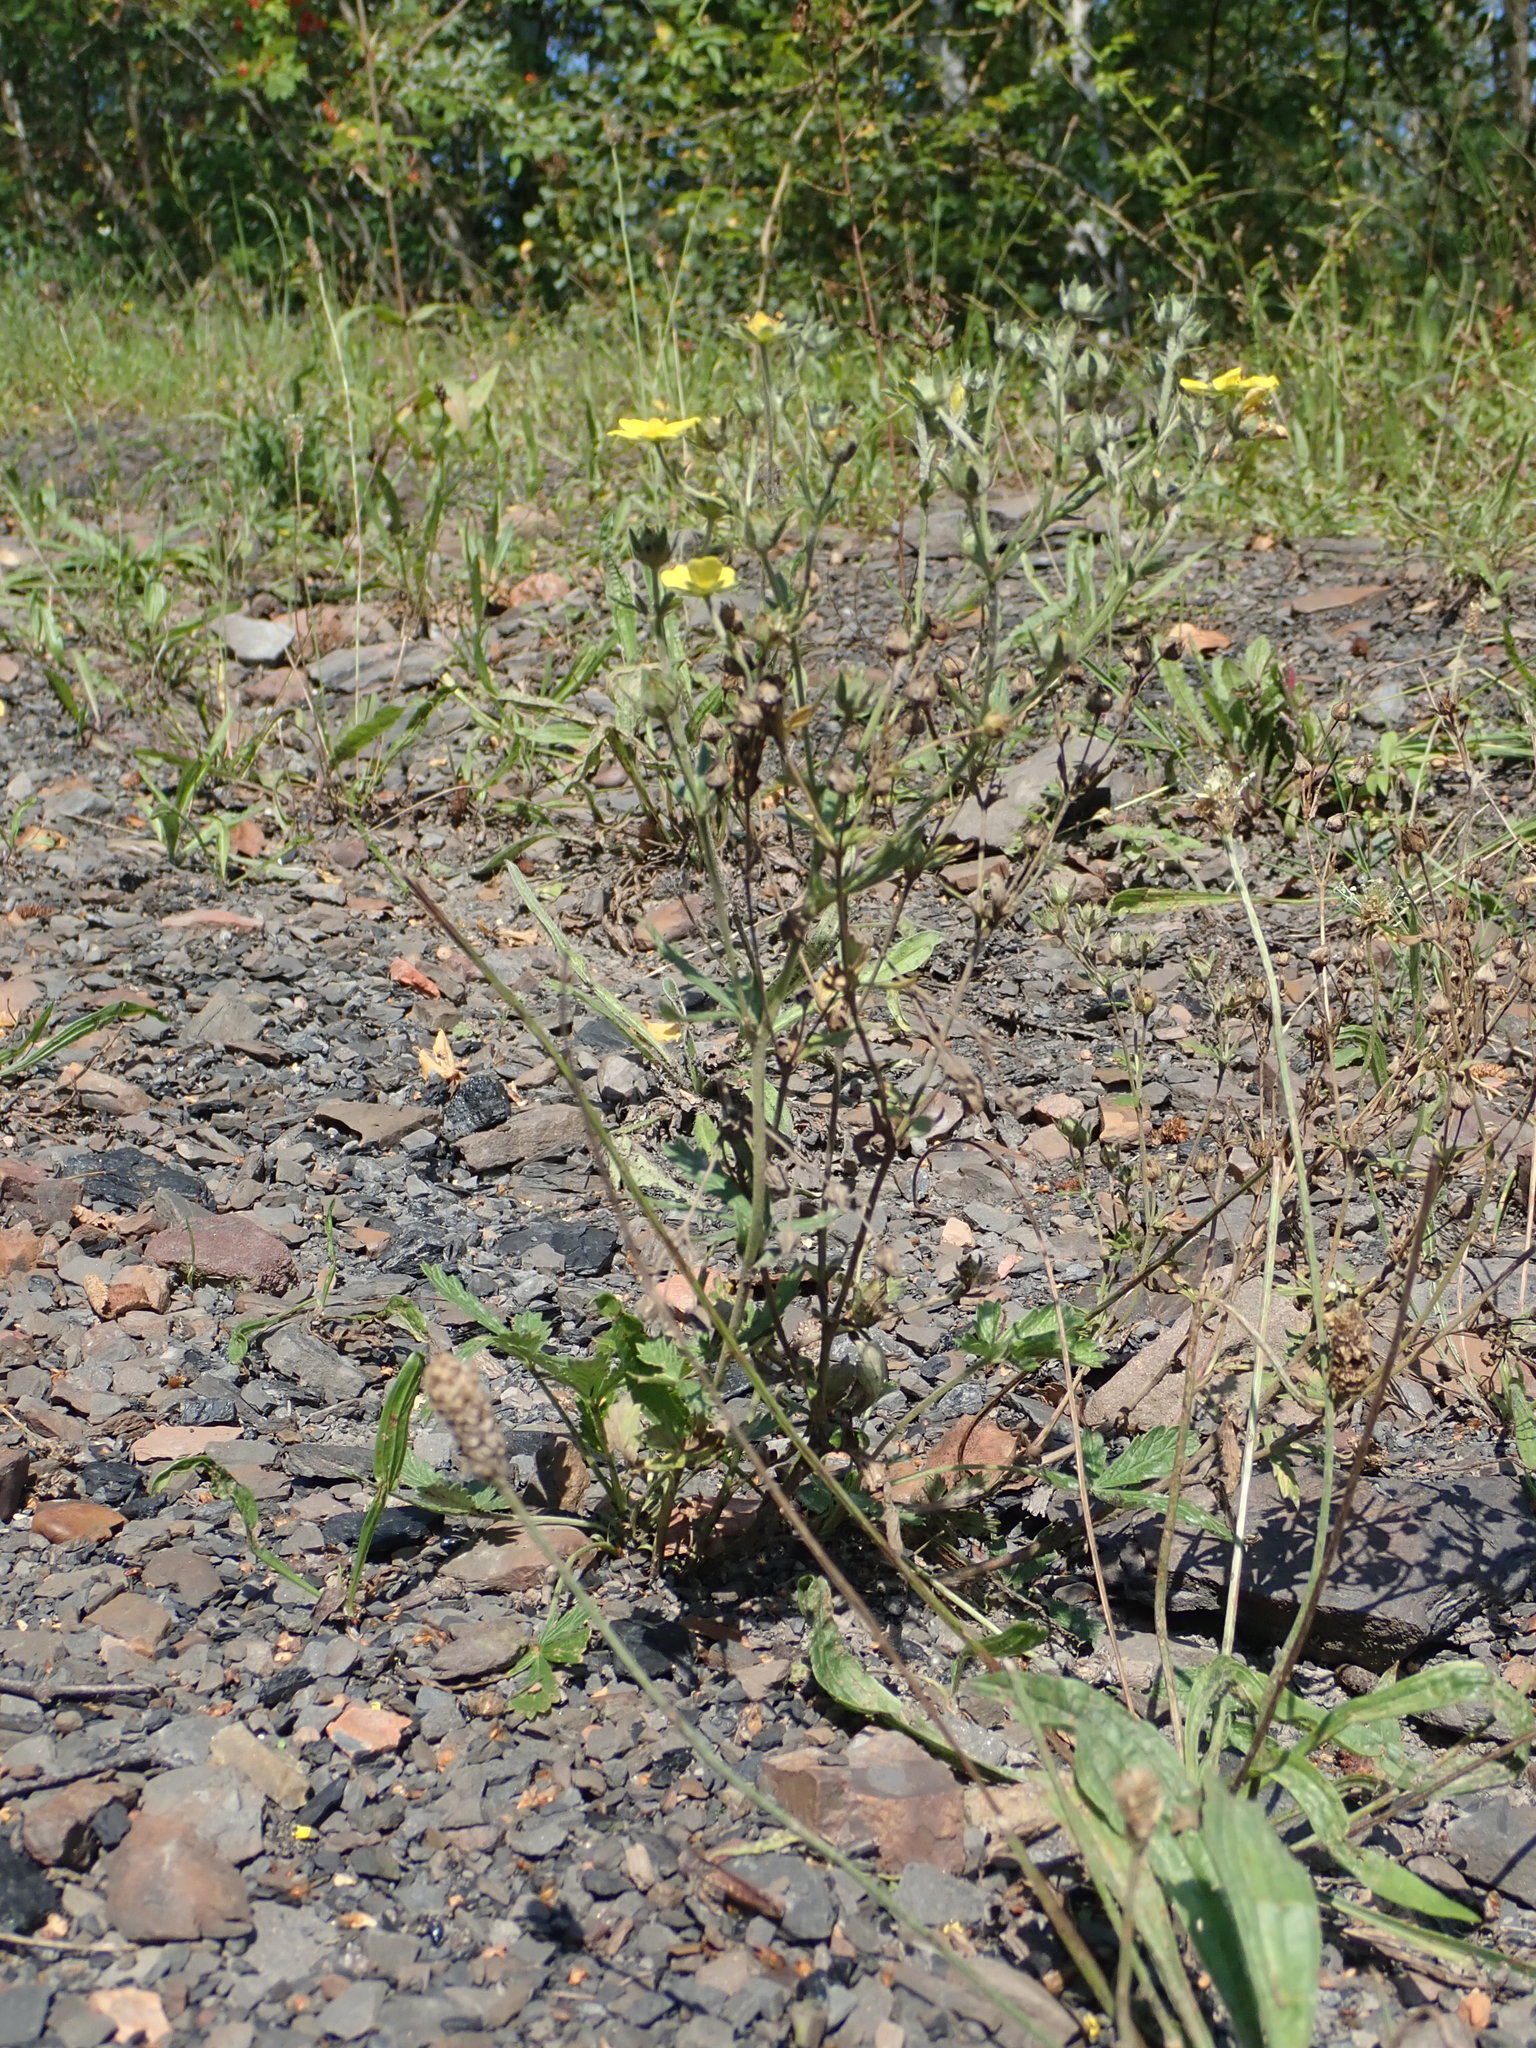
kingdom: Plantae
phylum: Tracheophyta
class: Magnoliopsida
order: Rosales
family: Rosaceae
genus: Potentilla
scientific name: Potentilla intermedia
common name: Downy cinquefoil
